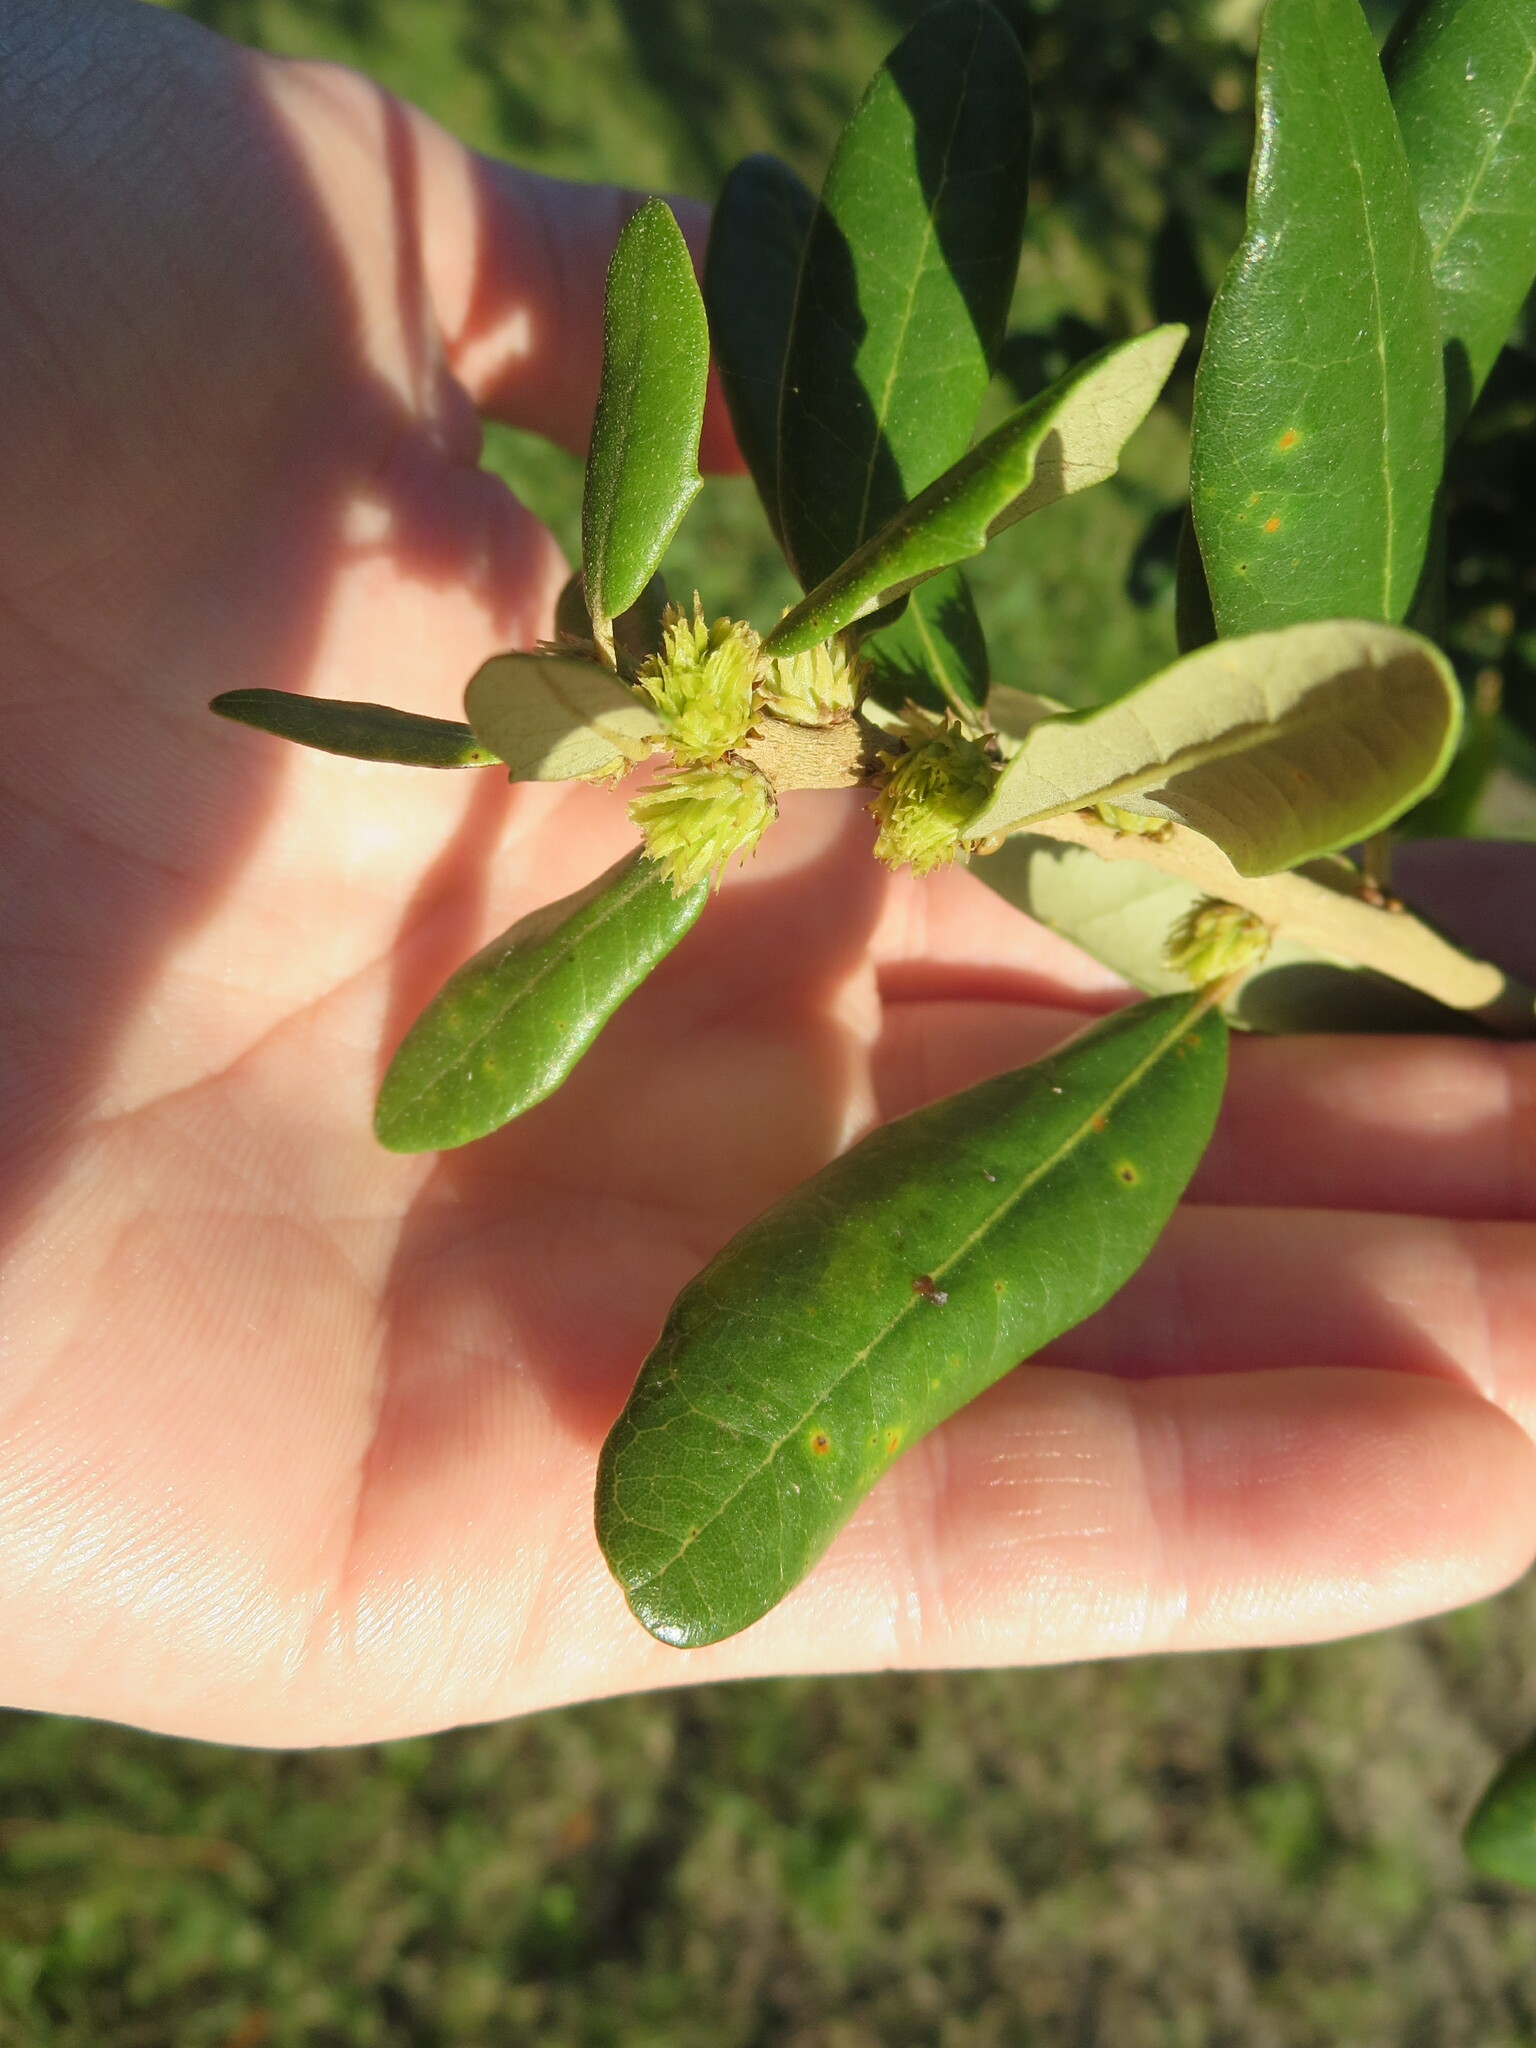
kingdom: Plantae
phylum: Tracheophyta
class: Magnoliopsida
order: Fagales
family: Fagaceae
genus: Quercus
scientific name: Quercus virginiana
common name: Southern live oak
